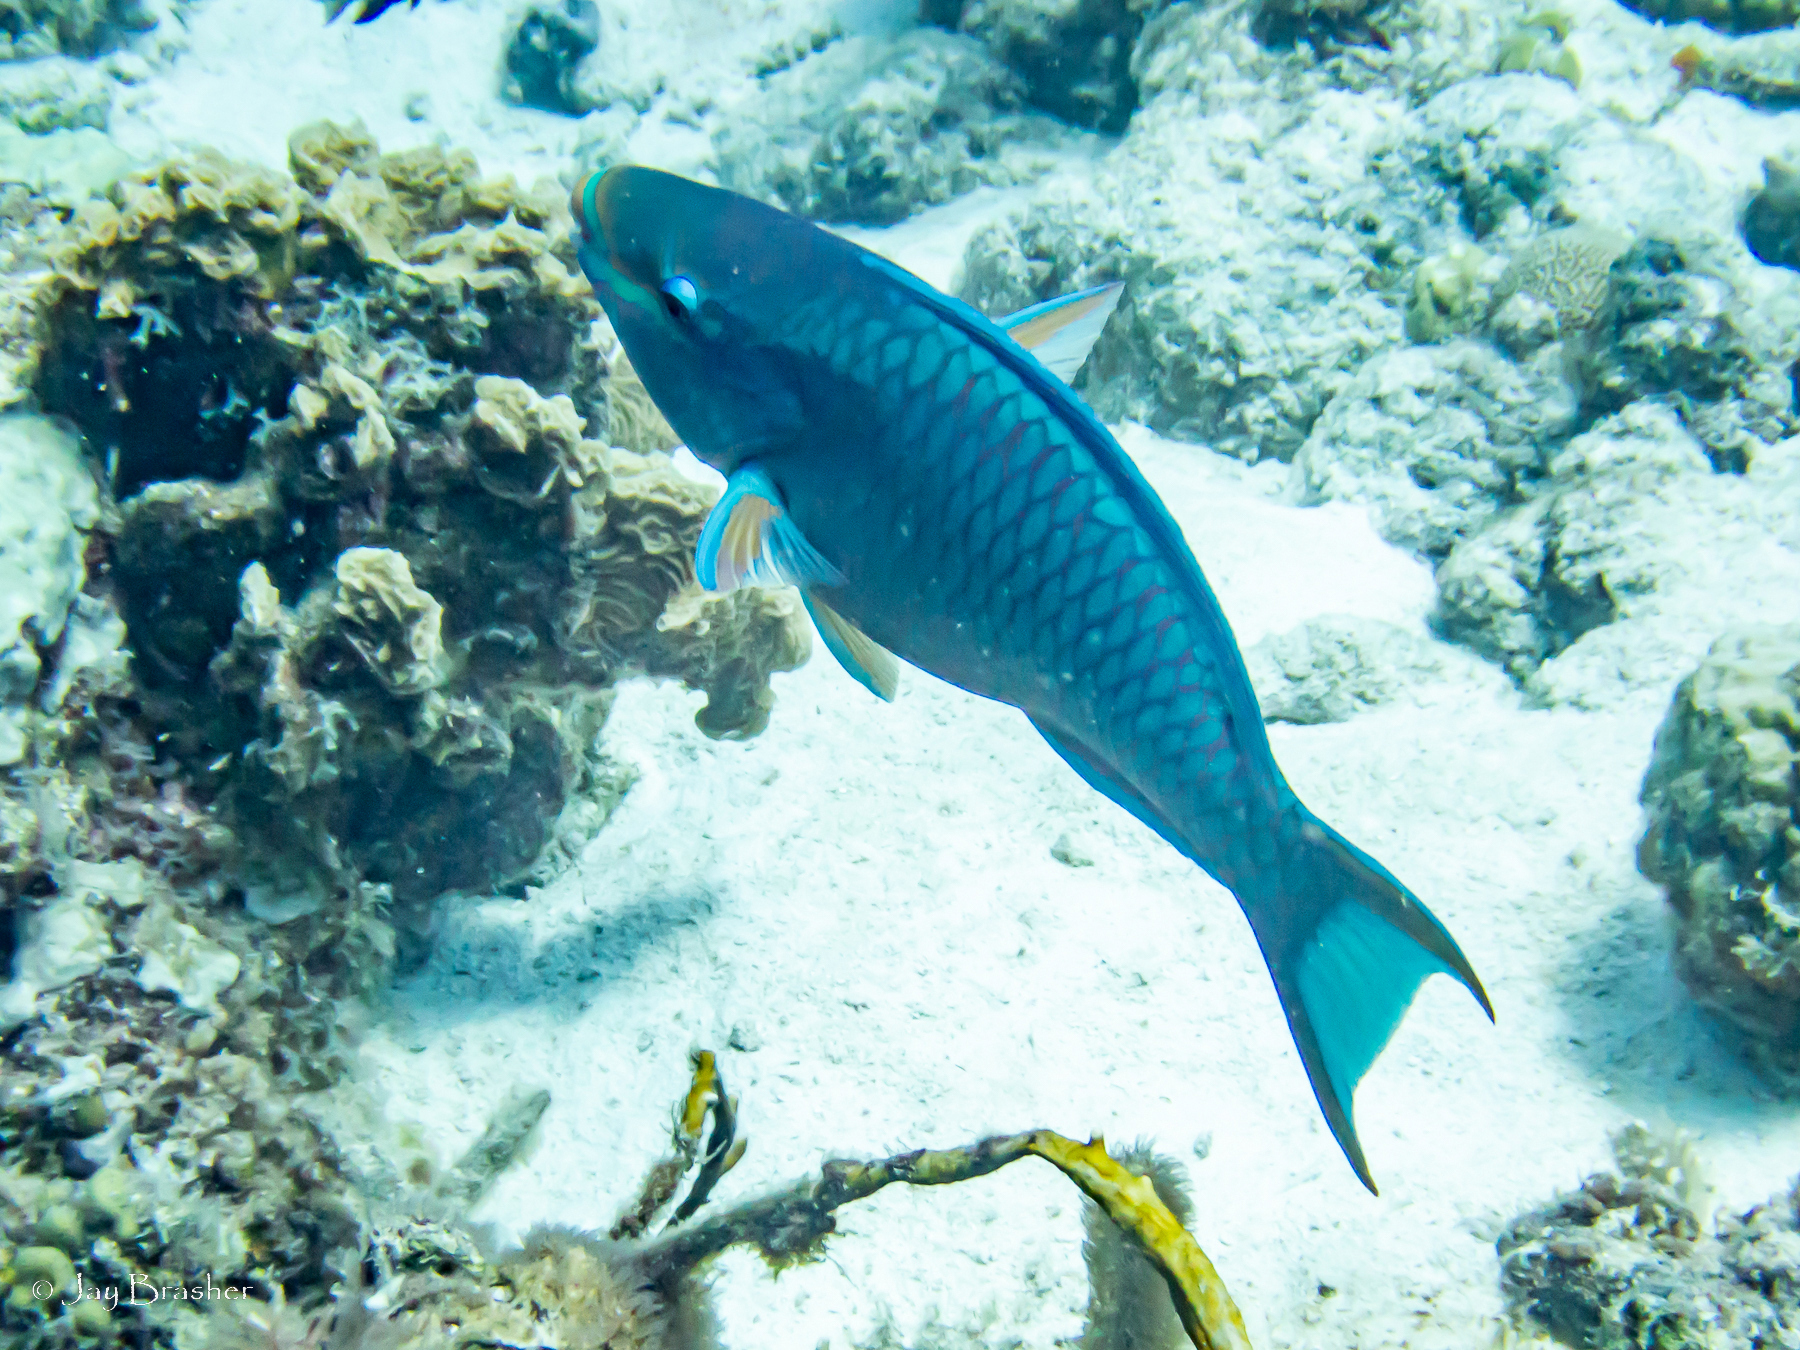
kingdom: Animalia
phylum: Chordata
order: Perciformes
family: Scaridae
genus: Scarus
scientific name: Scarus vetula
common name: Queen parrotfish
